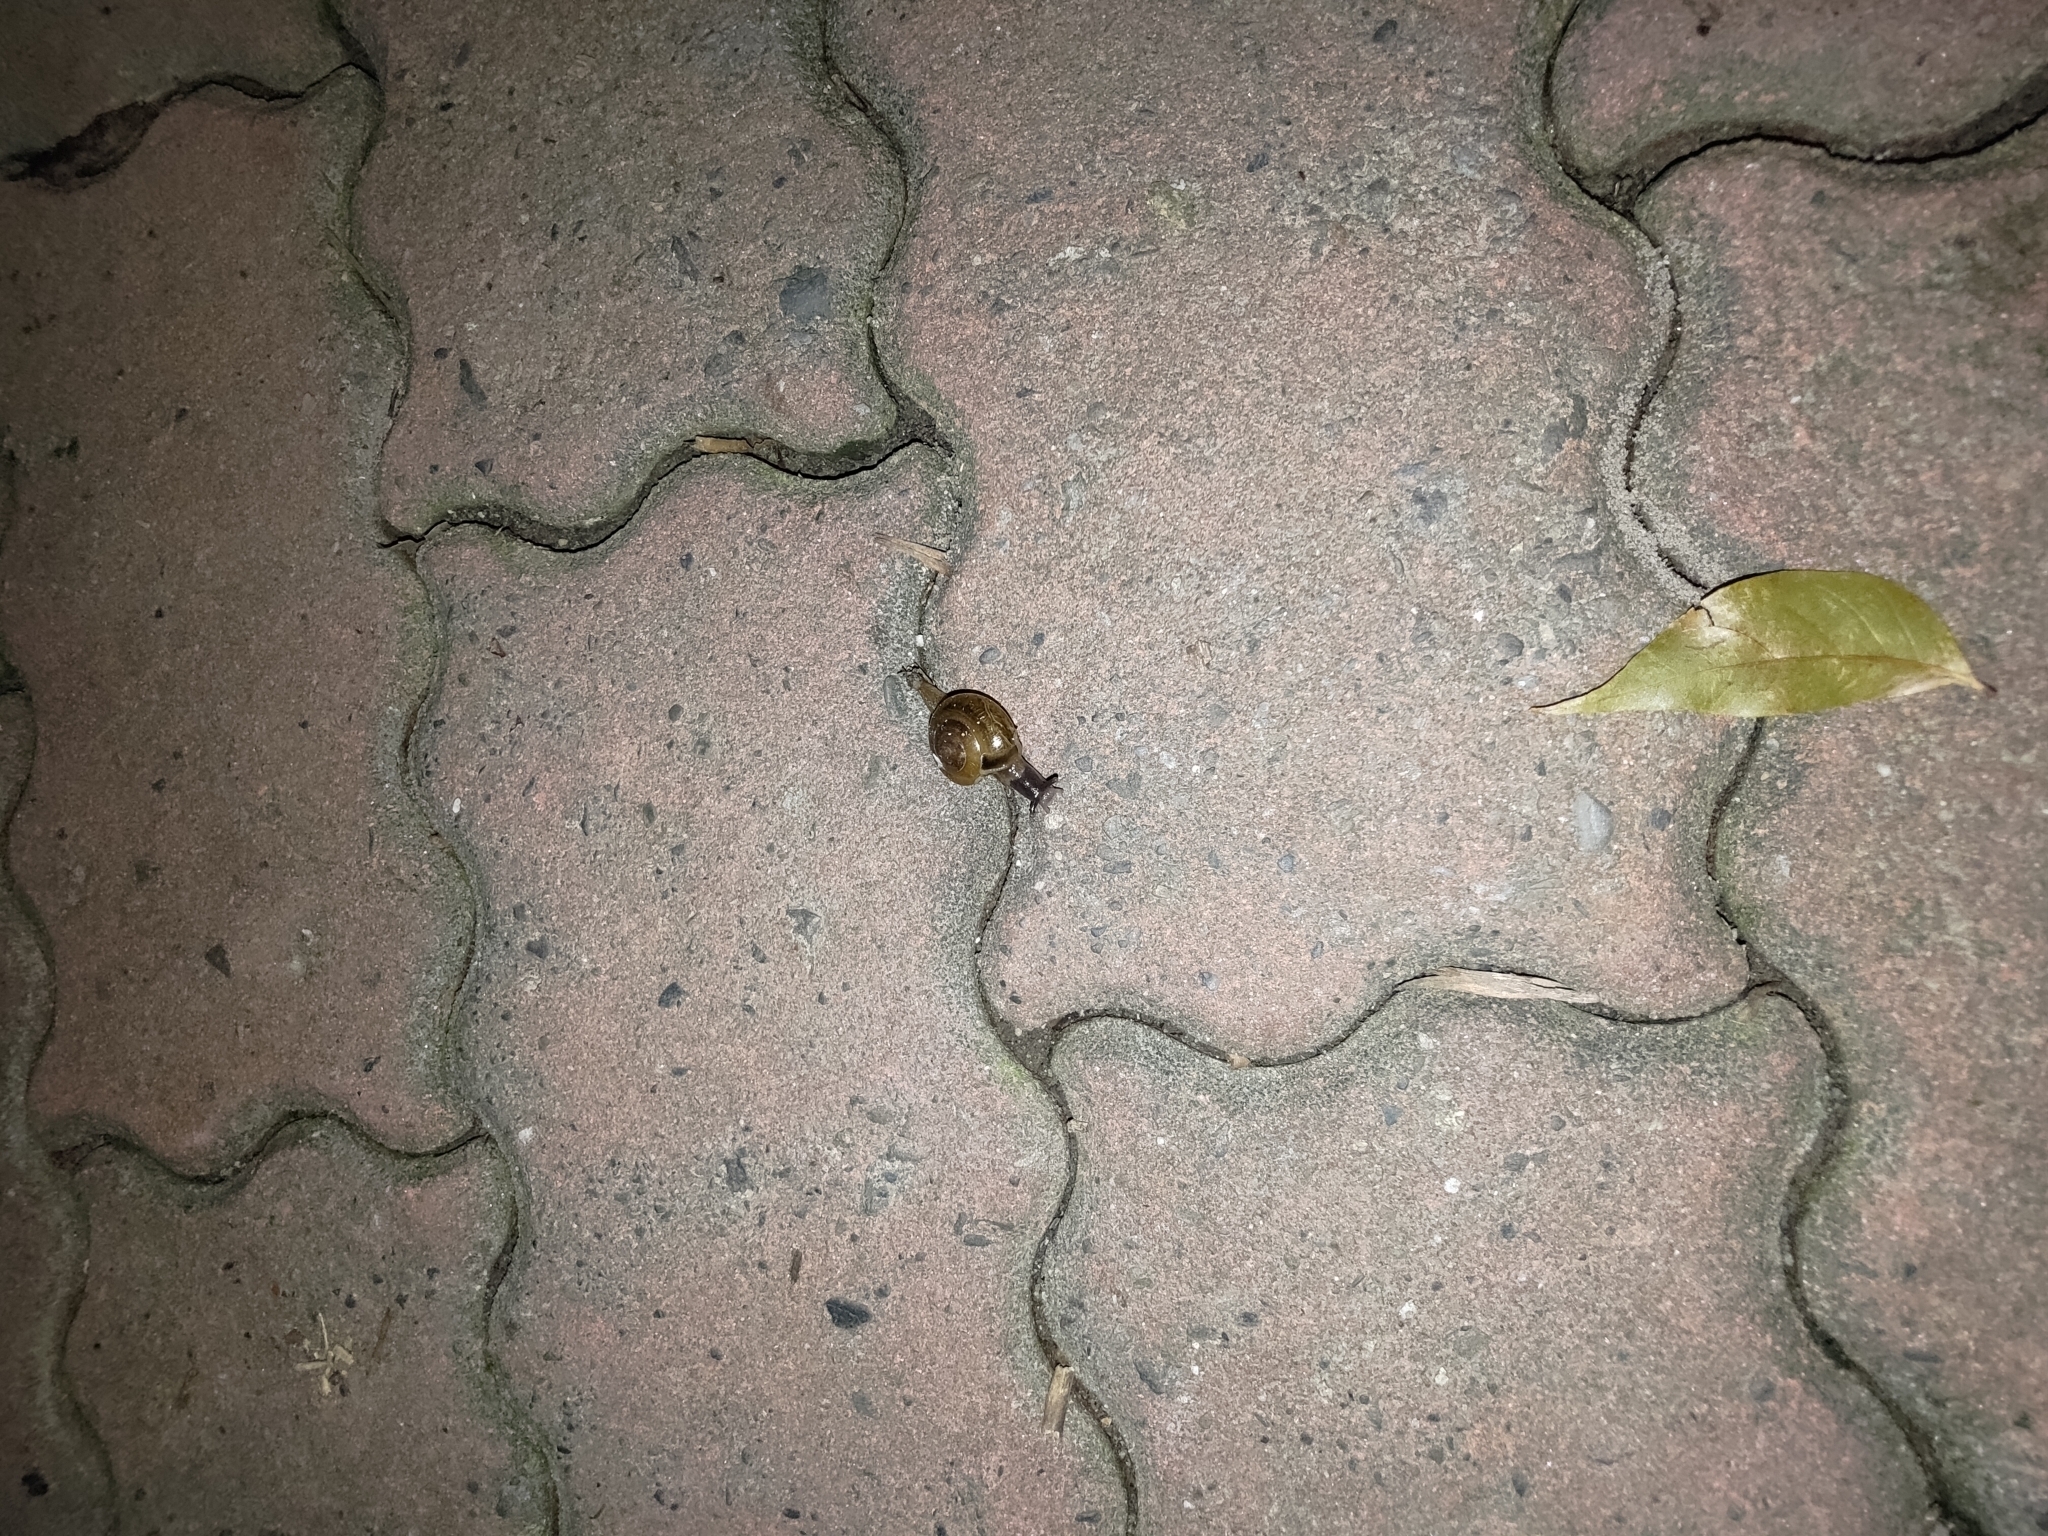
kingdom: Animalia
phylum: Mollusca
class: Gastropoda
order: Stylommatophora
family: Ariophantidae
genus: Macrochlamys
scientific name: Macrochlamys hippocastaneum
